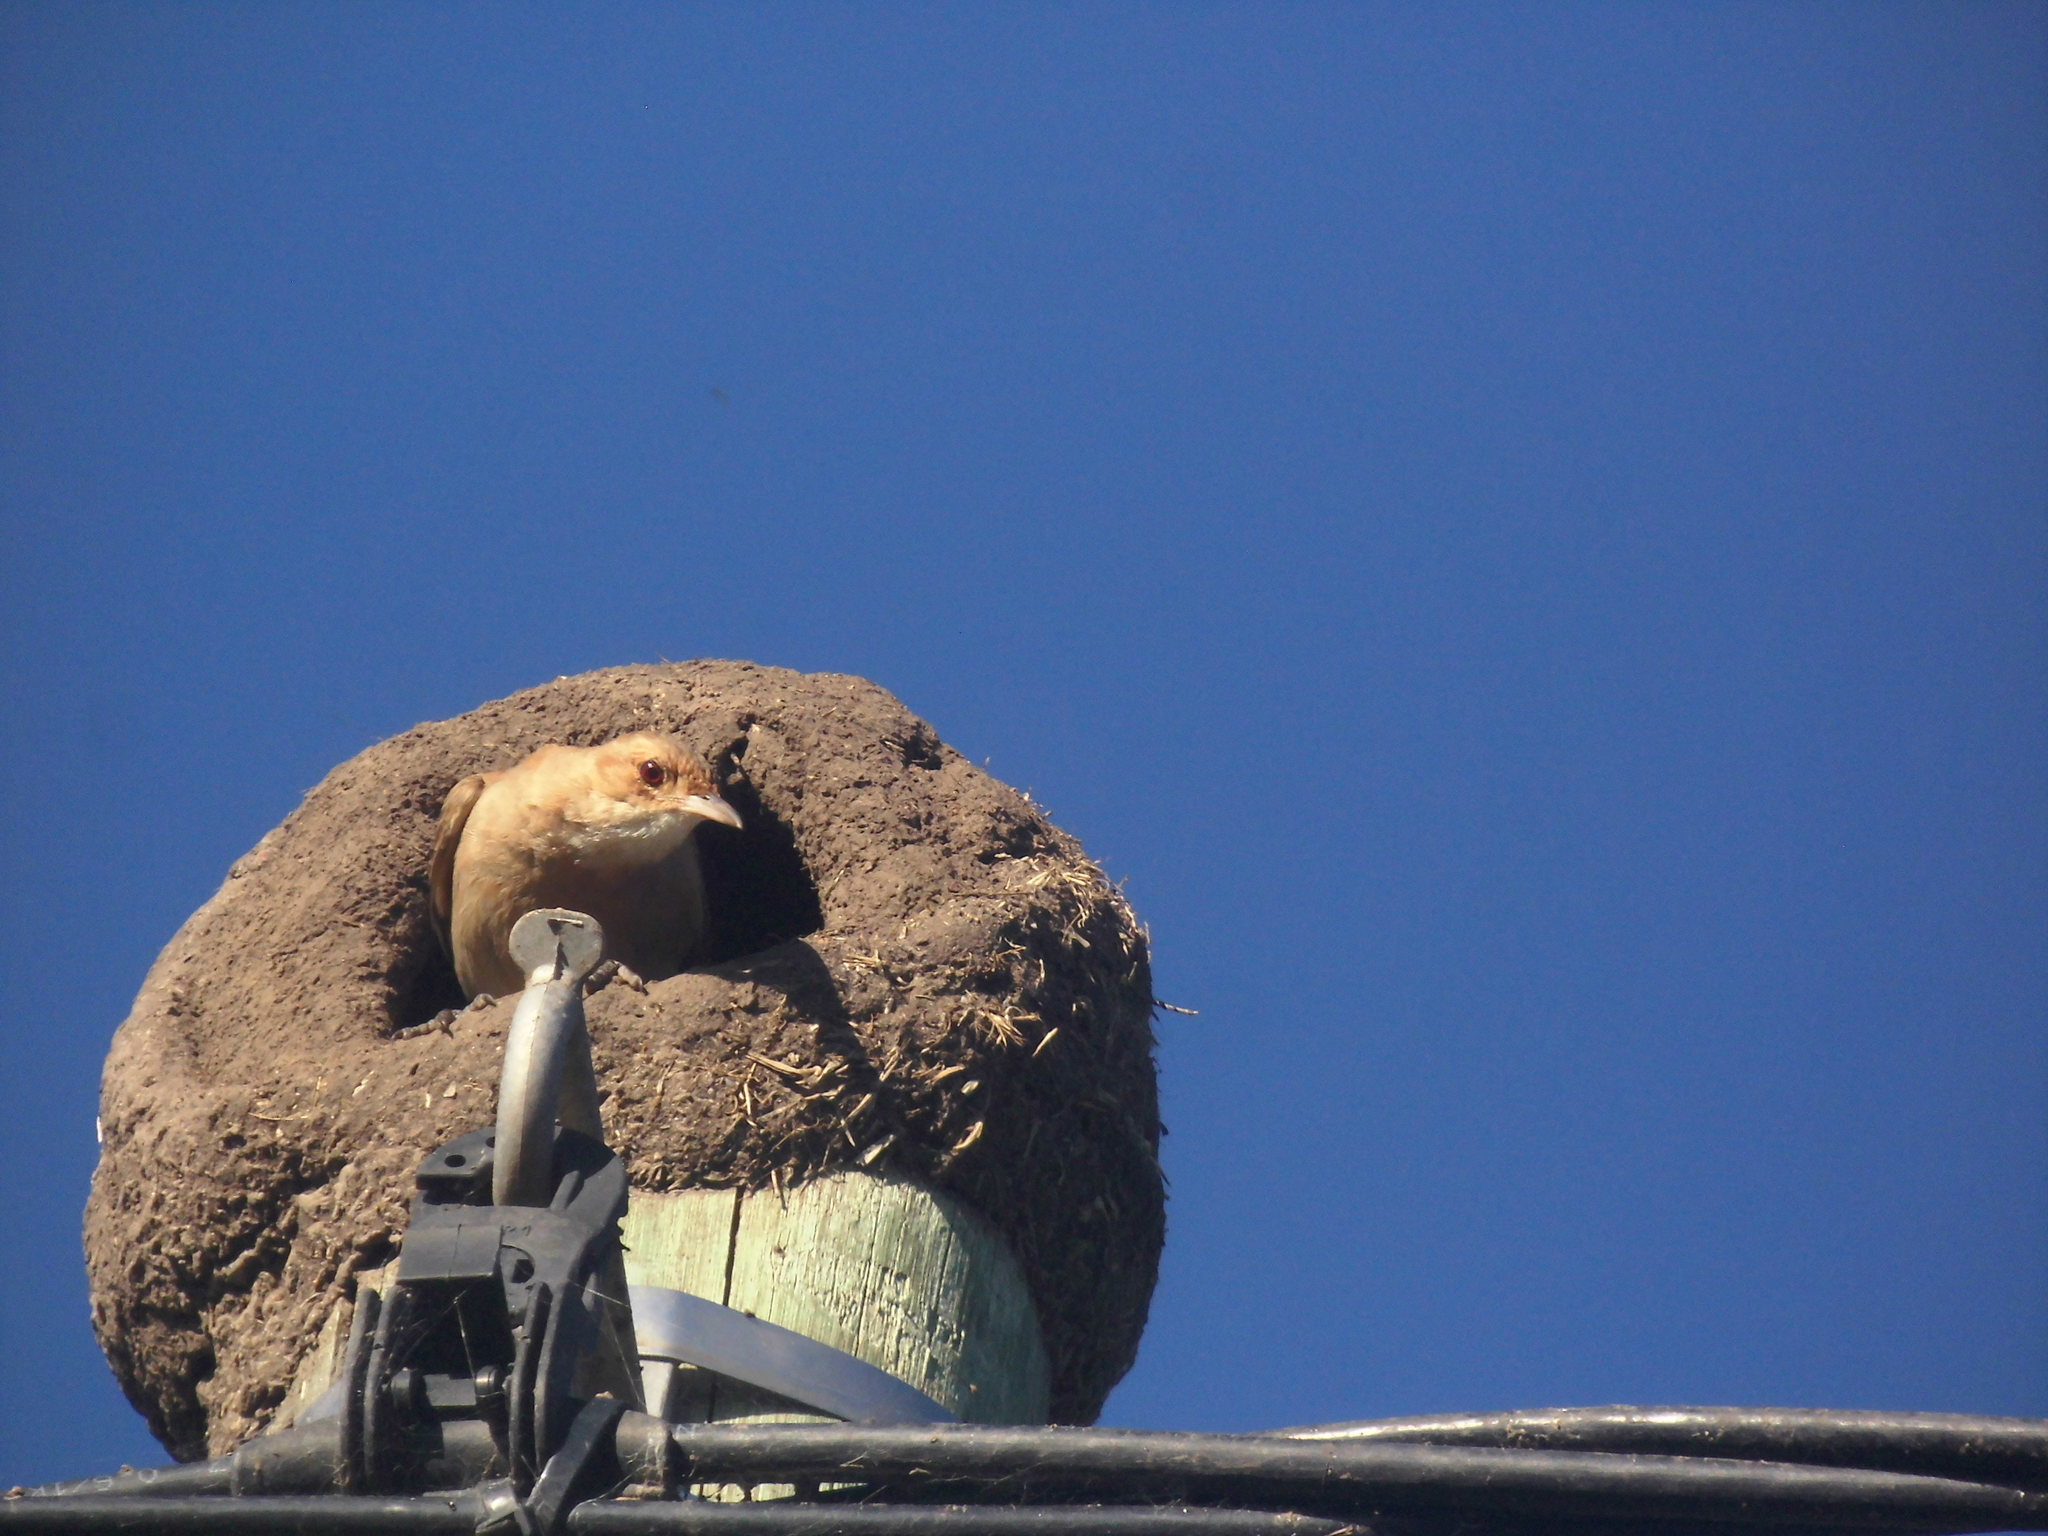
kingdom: Animalia
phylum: Chordata
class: Aves
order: Passeriformes
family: Furnariidae
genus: Furnarius
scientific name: Furnarius rufus
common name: Rufous hornero
